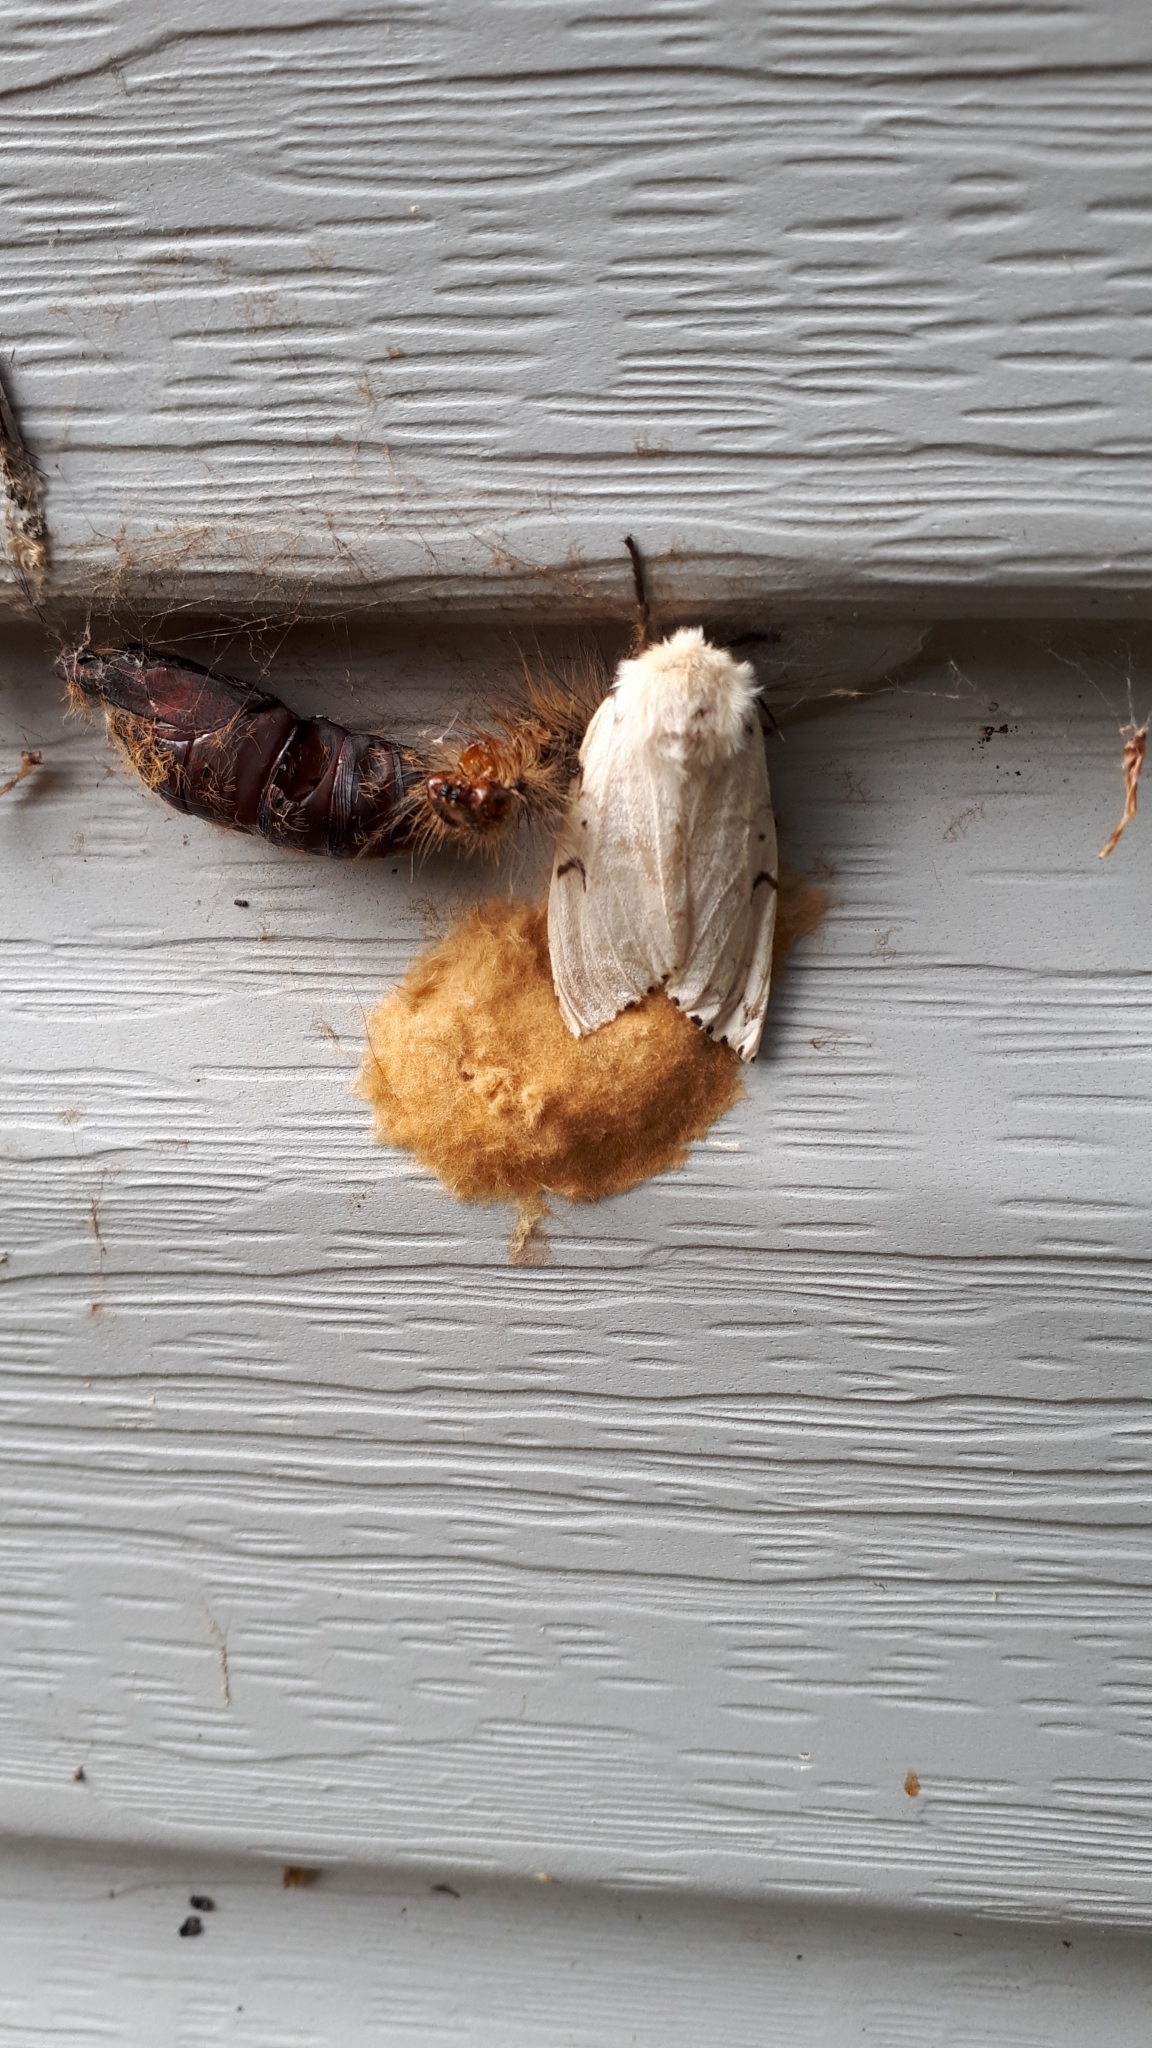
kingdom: Animalia
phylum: Arthropoda
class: Insecta
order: Lepidoptera
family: Erebidae
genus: Lymantria
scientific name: Lymantria dispar
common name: Gypsy moth
